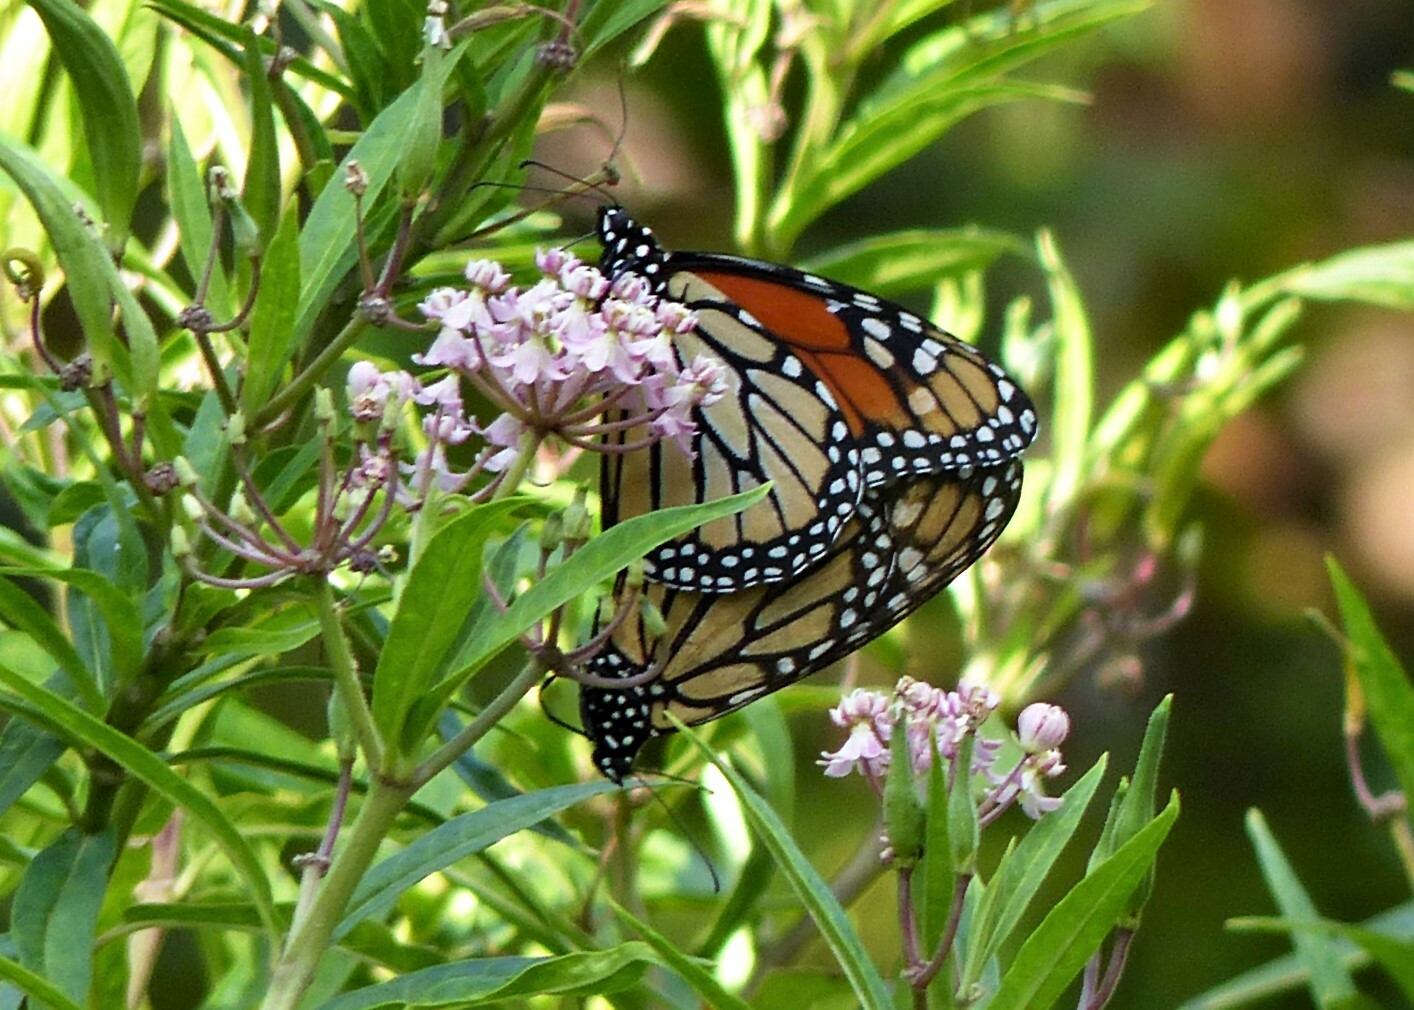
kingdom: Animalia
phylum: Arthropoda
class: Insecta
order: Lepidoptera
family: Nymphalidae
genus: Danaus
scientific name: Danaus plexippus
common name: Monarch
